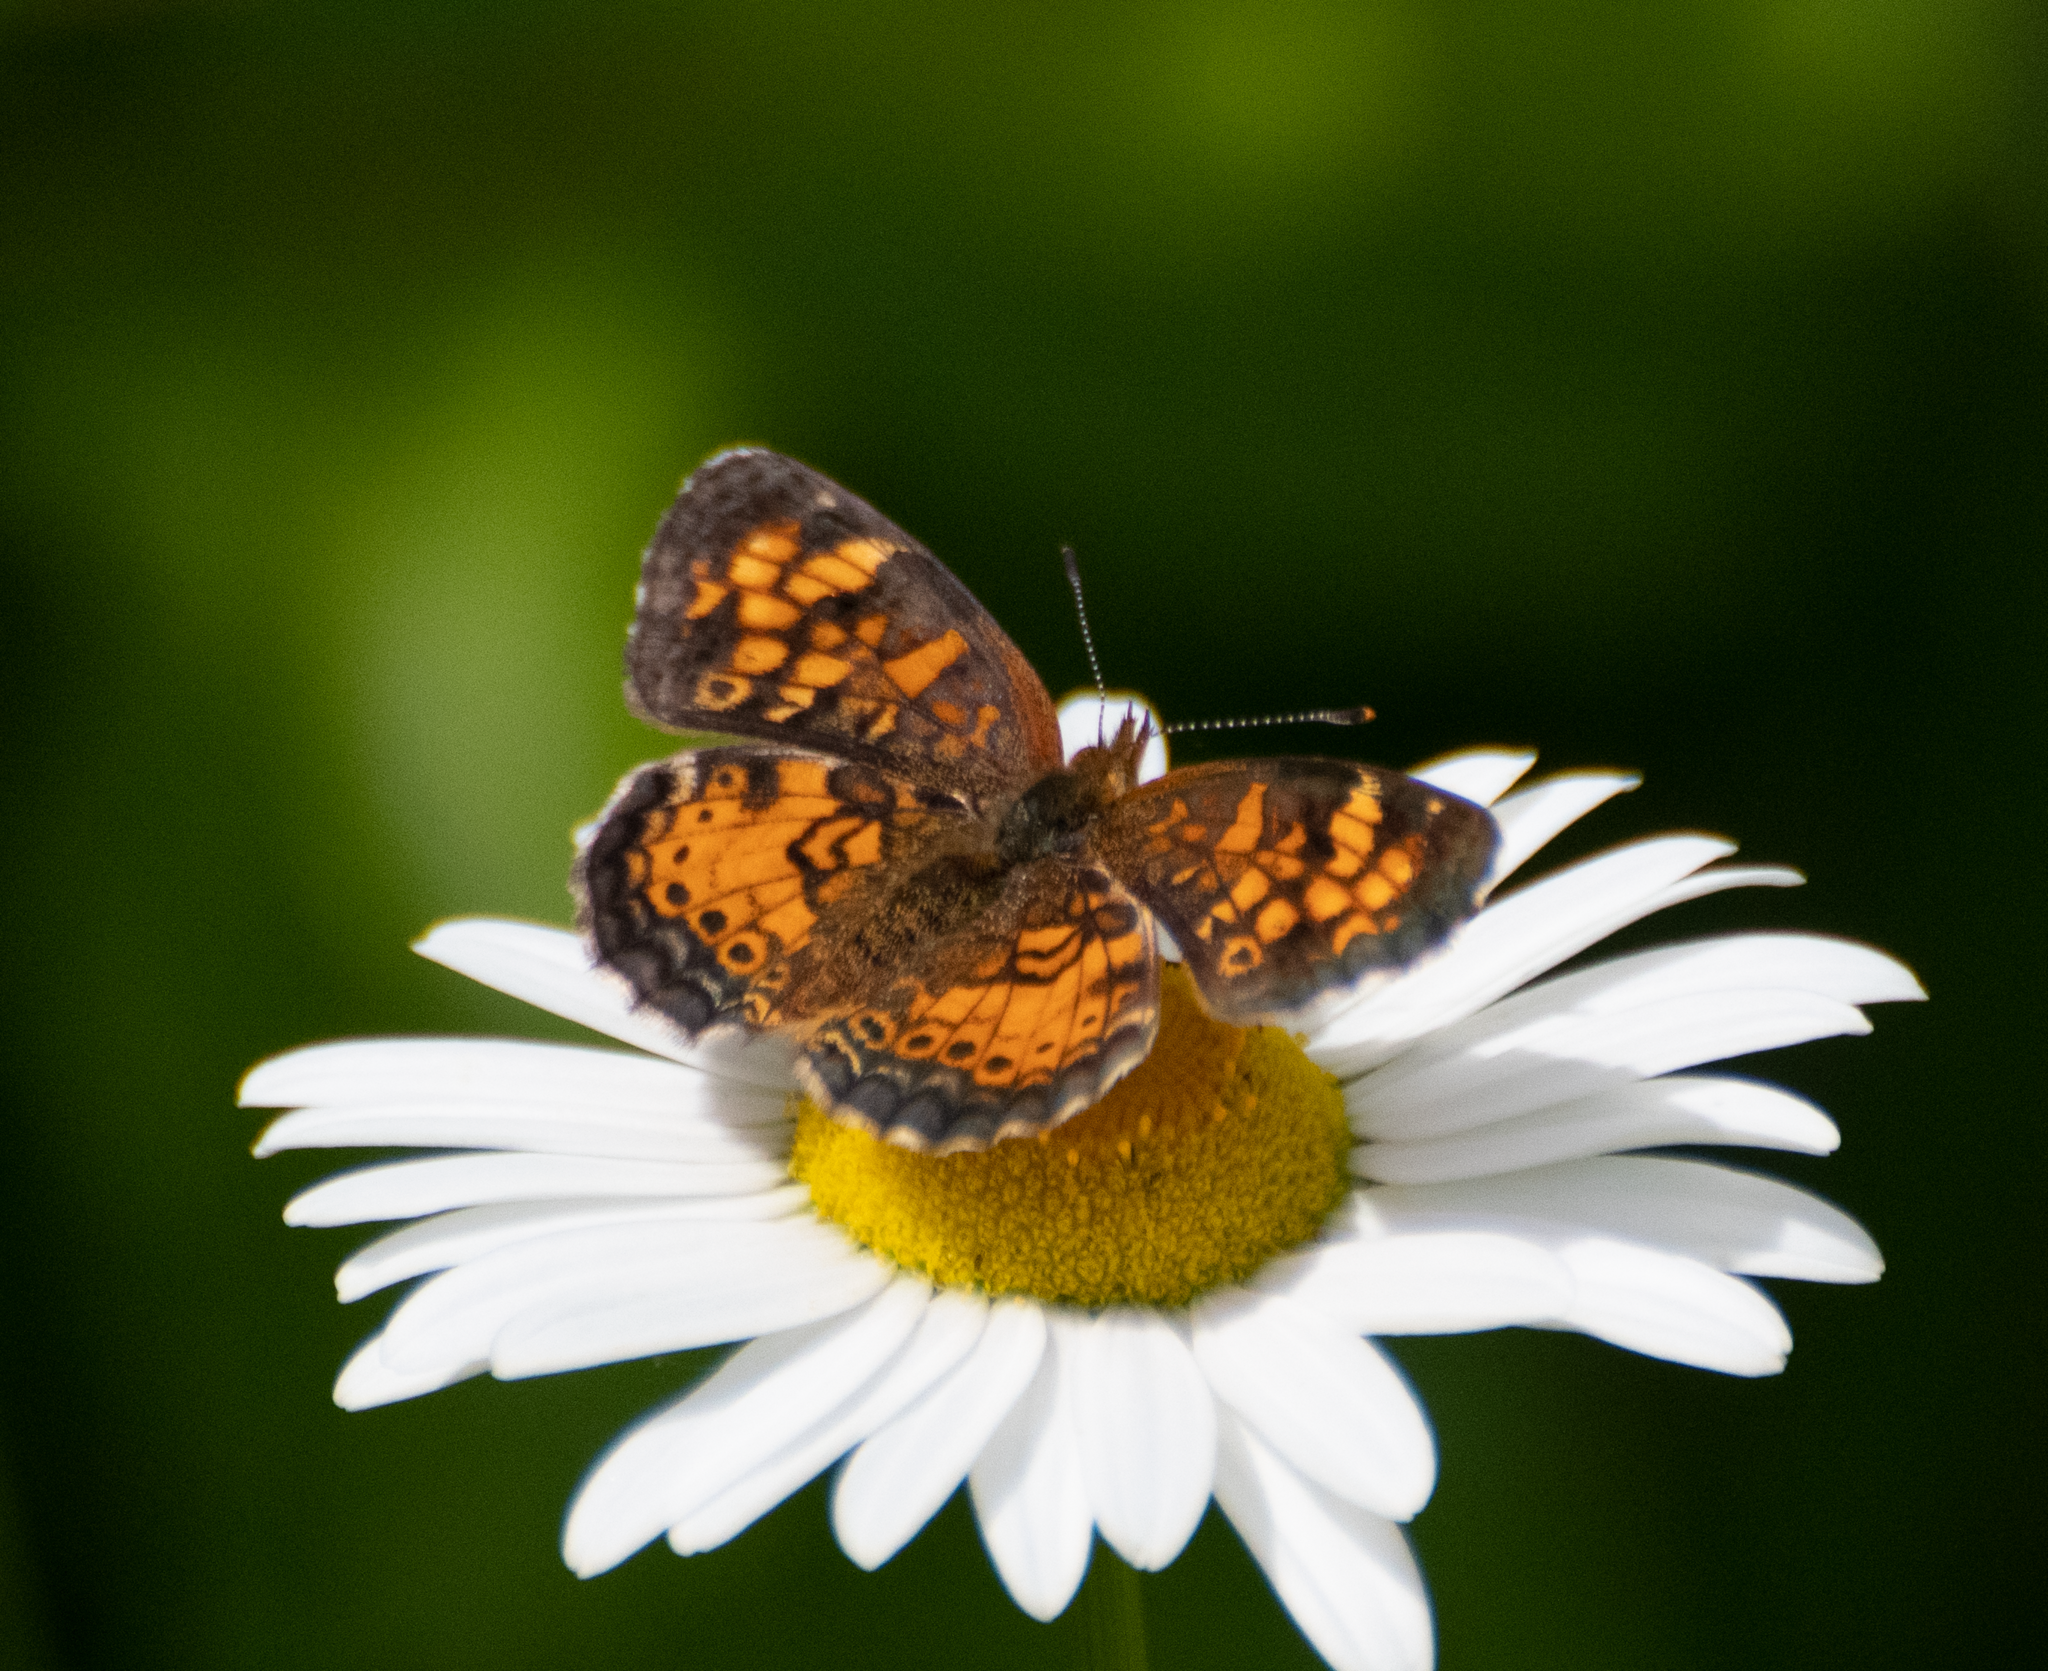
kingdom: Animalia
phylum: Arthropoda
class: Insecta
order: Lepidoptera
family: Nymphalidae
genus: Phyciodes
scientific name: Phyciodes tharos
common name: Pearl crescent
